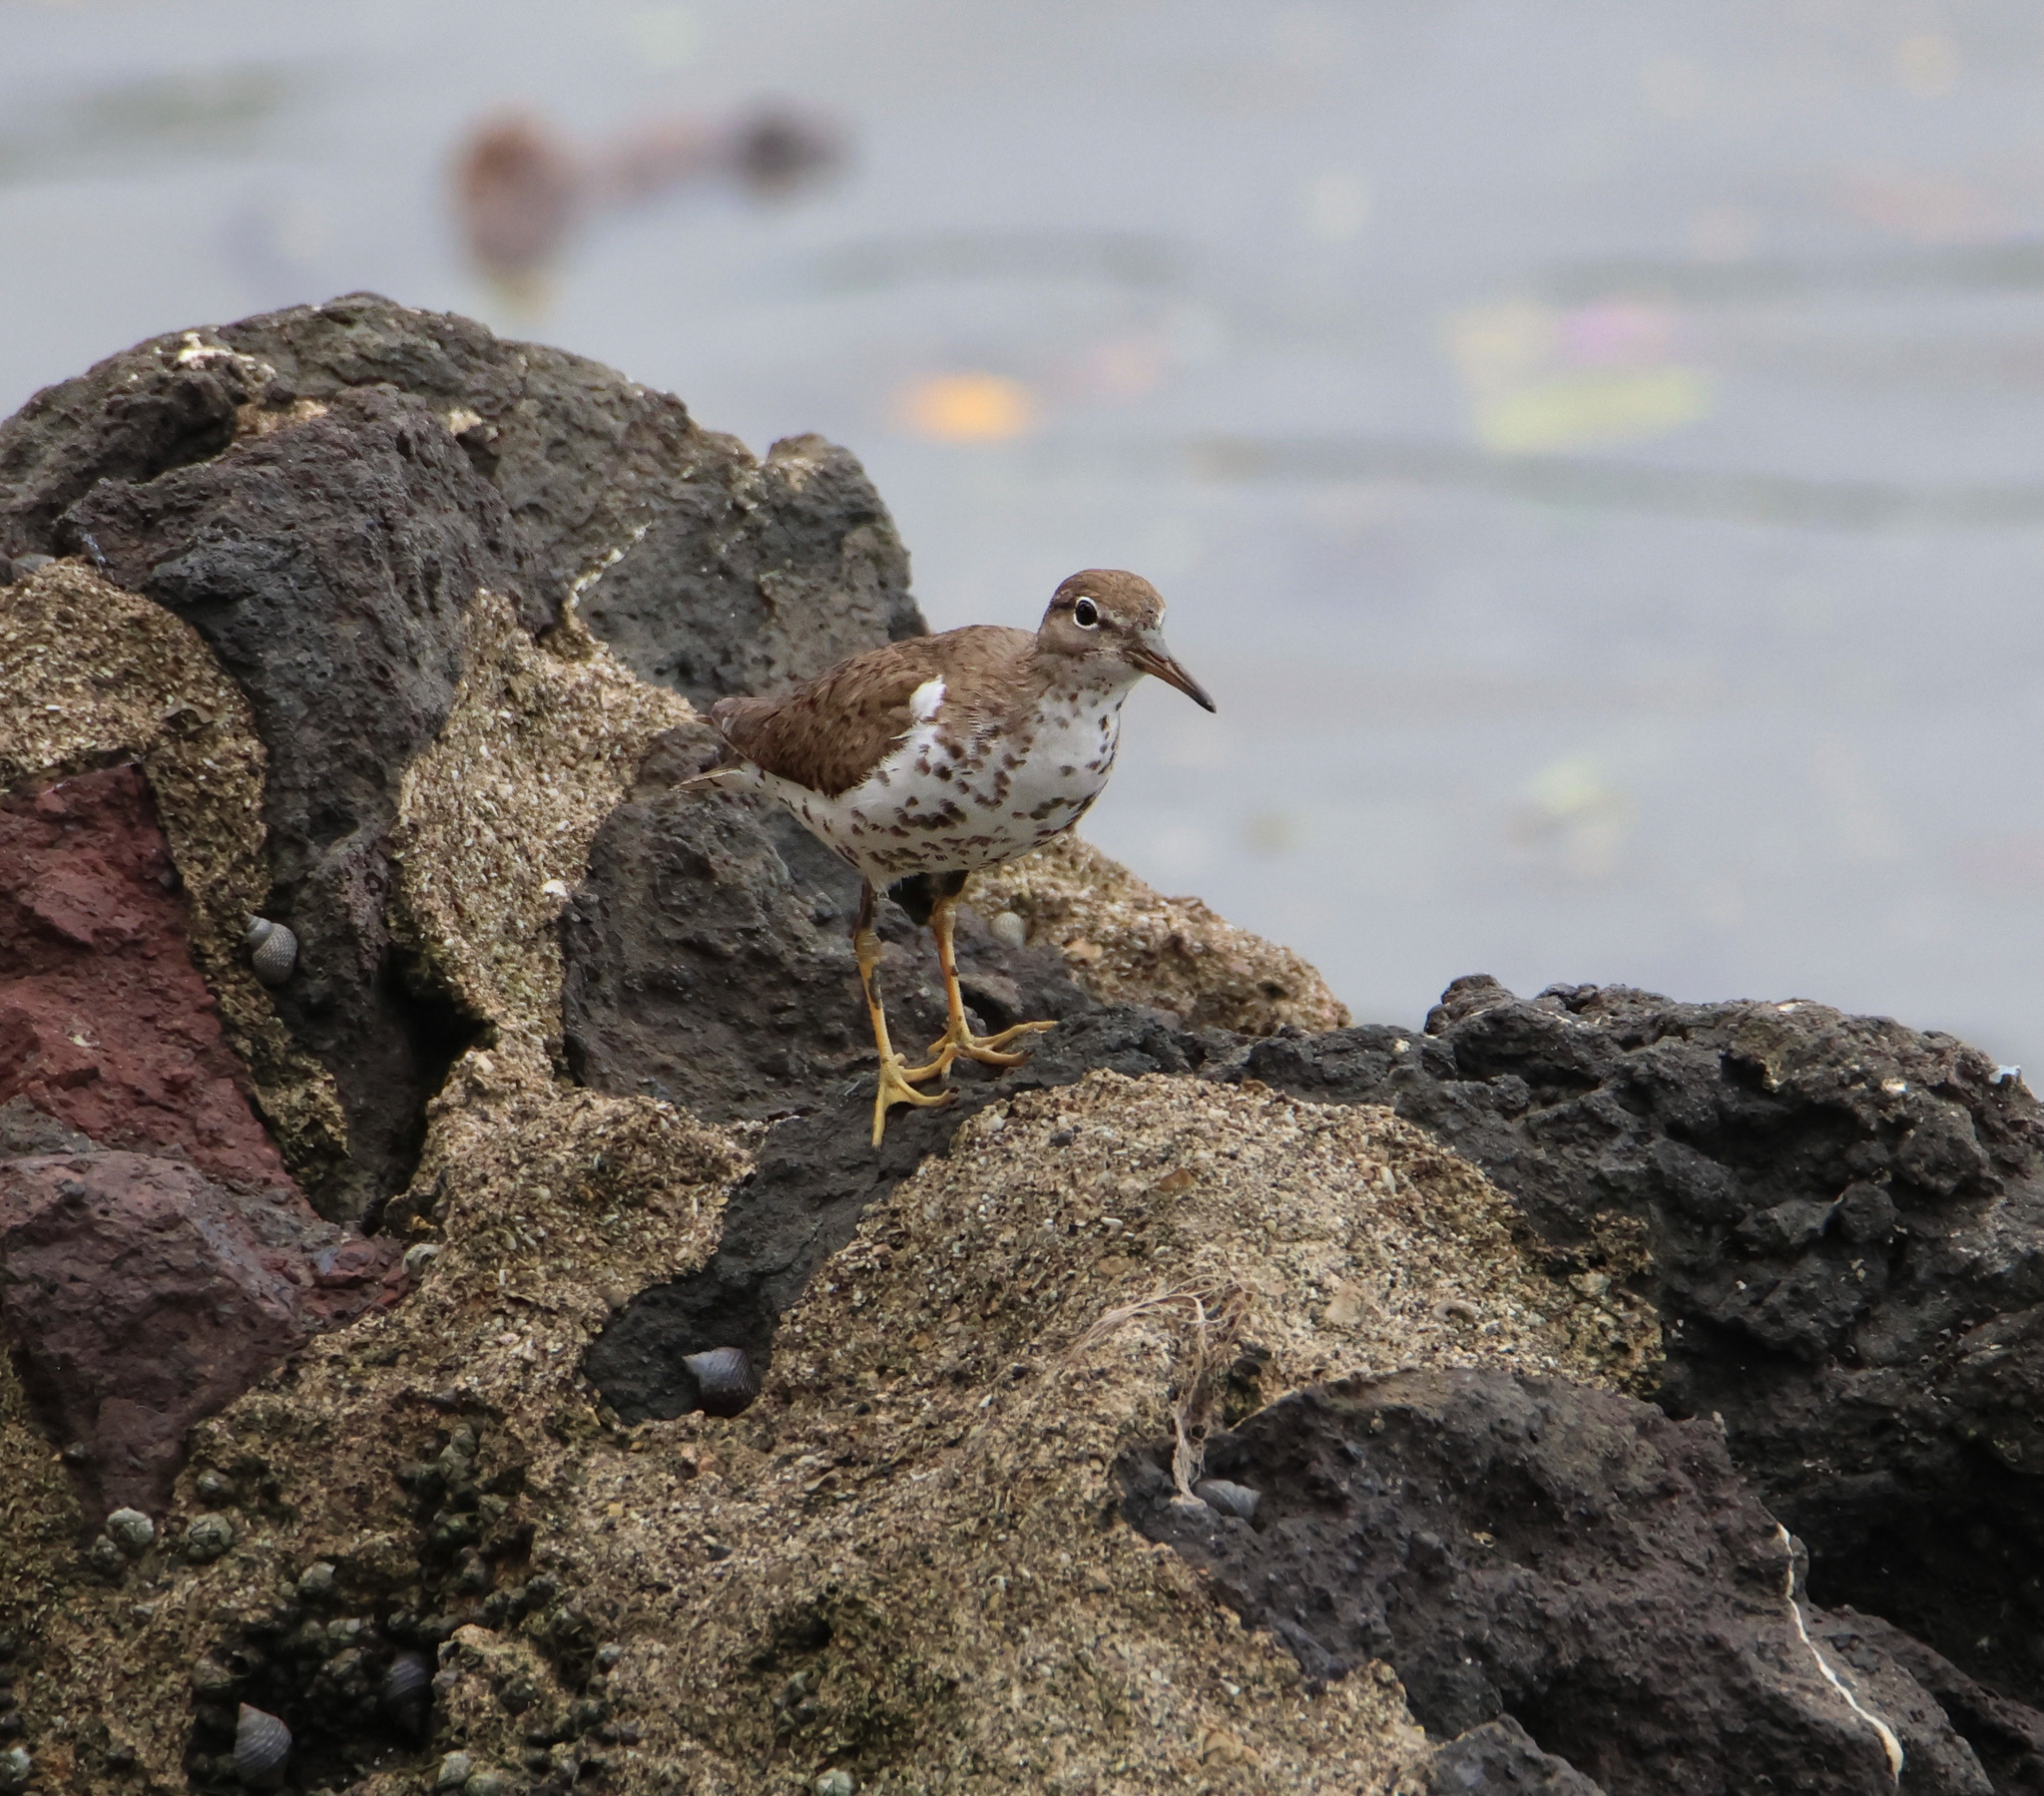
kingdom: Animalia
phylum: Chordata
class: Aves
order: Charadriiformes
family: Scolopacidae
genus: Actitis
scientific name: Actitis macularius
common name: Spotted sandpiper
